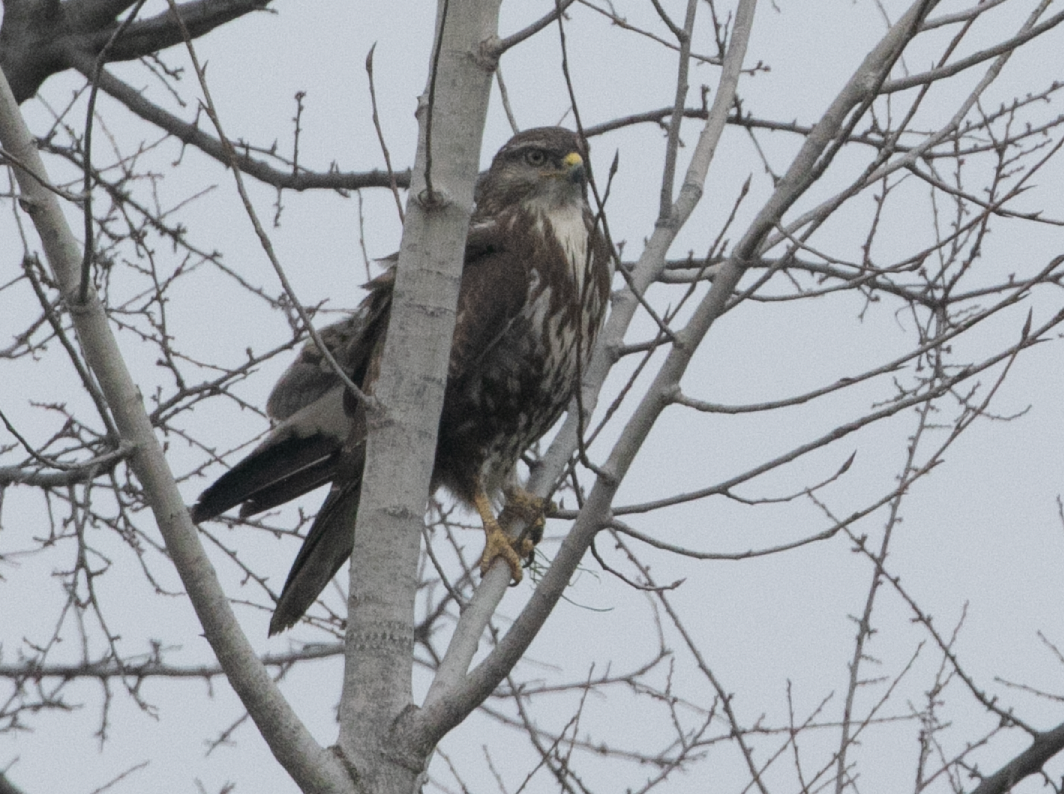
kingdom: Animalia
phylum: Chordata
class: Aves
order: Accipitriformes
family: Accipitridae
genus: Buteo
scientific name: Buteo buteo
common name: Common buzzard
